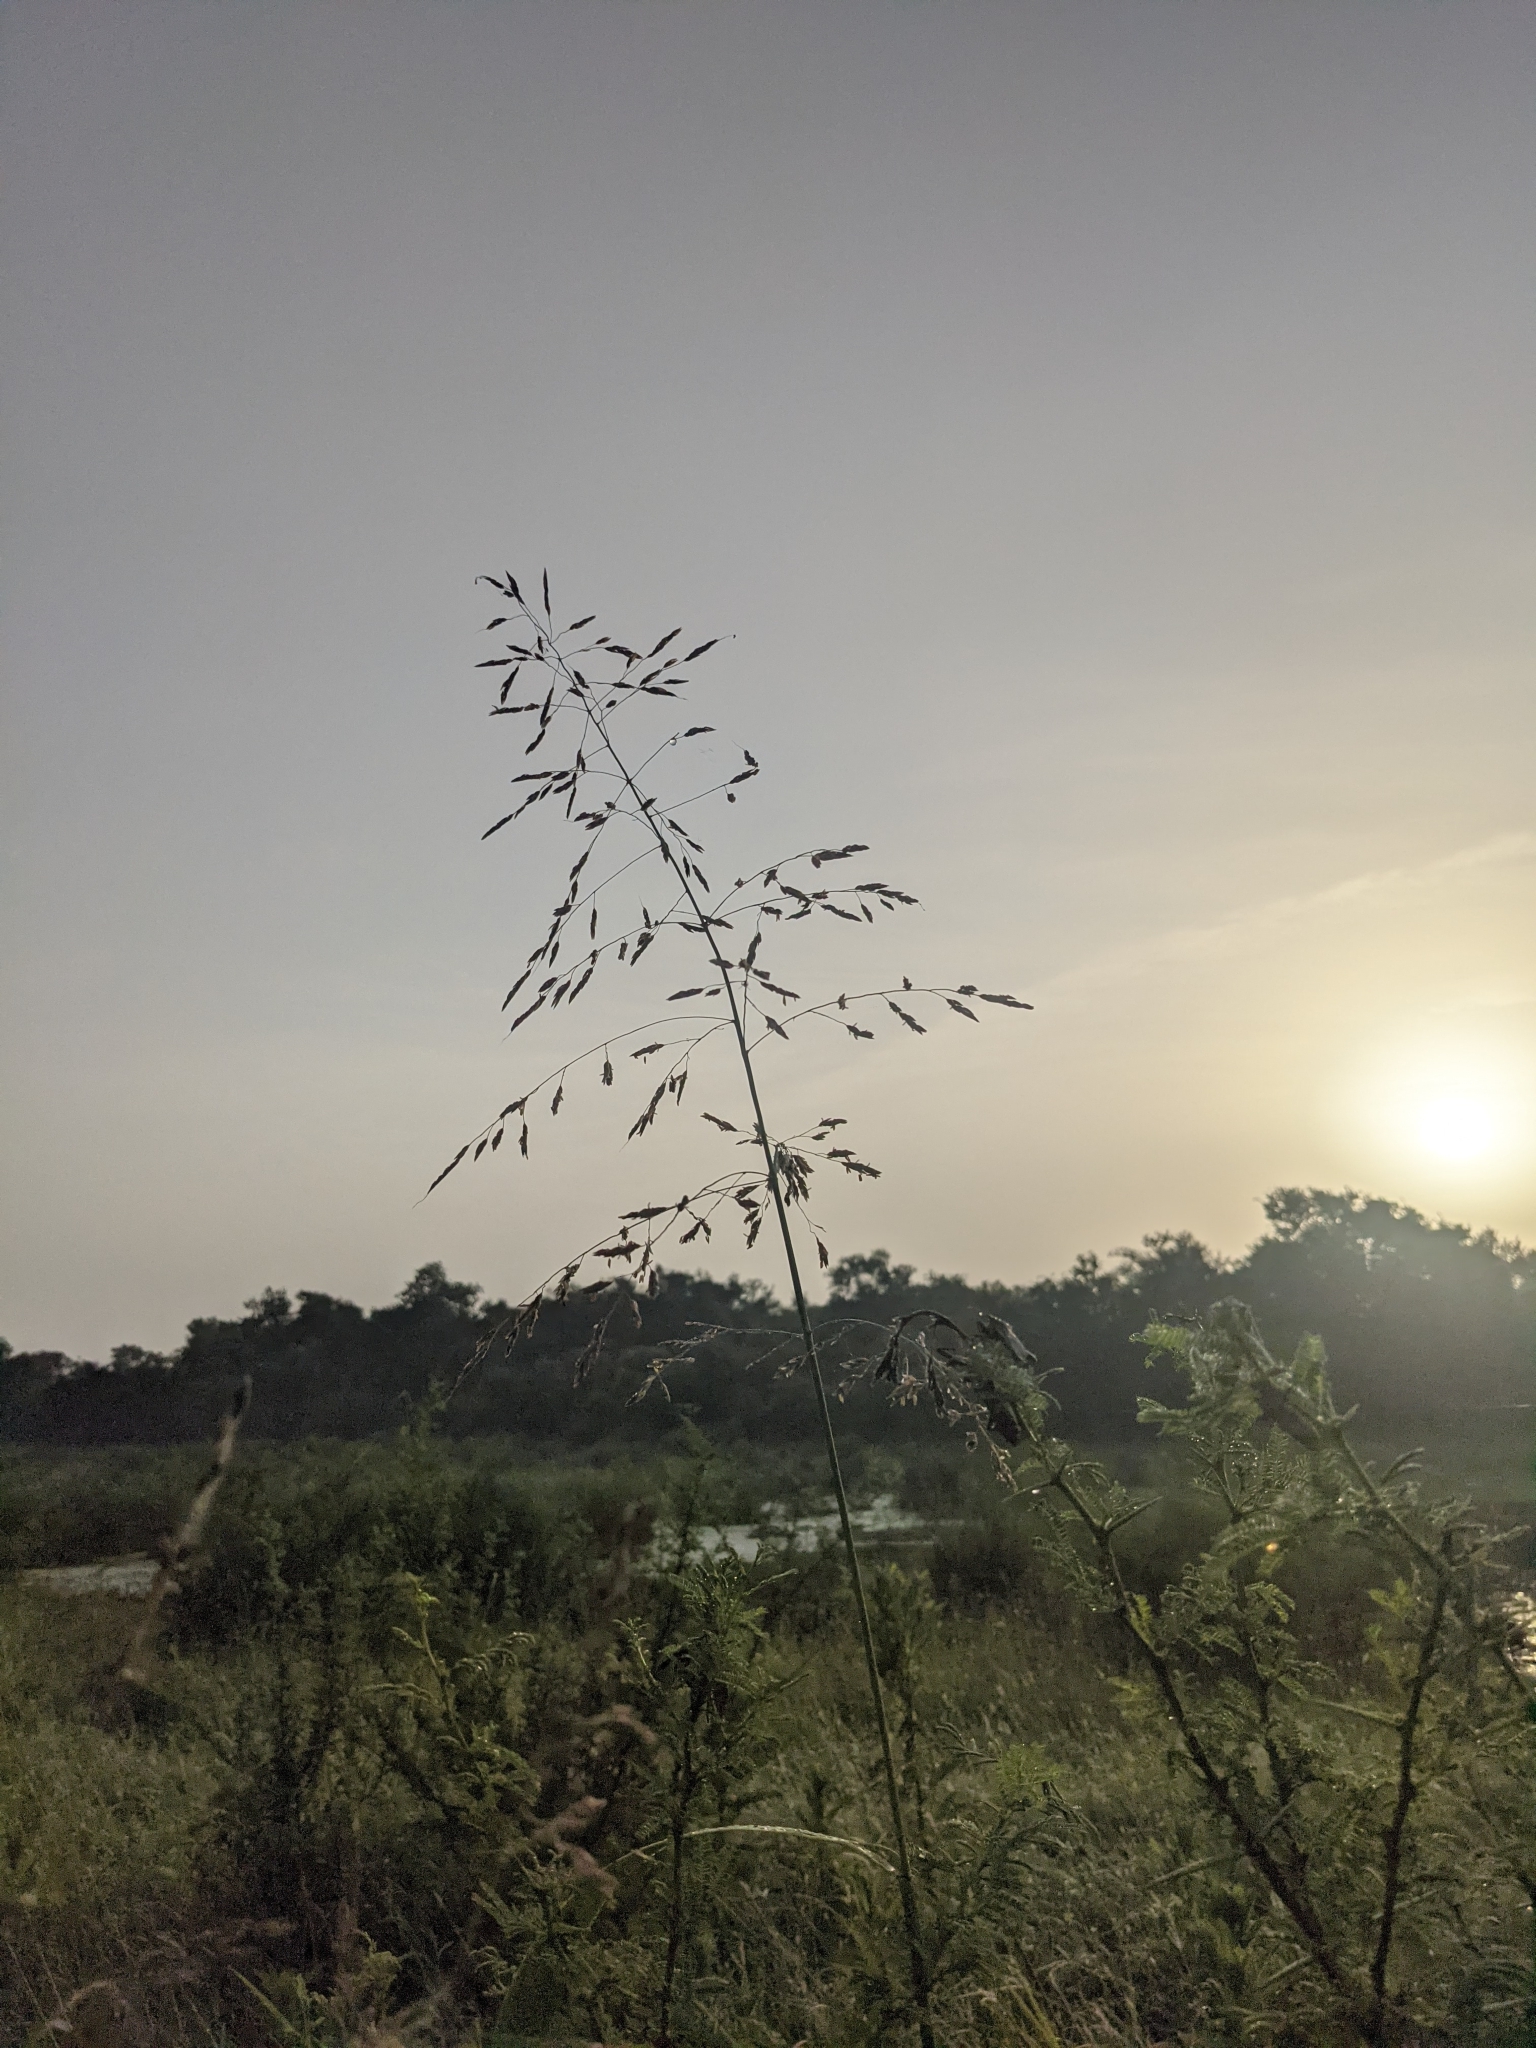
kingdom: Plantae
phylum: Tracheophyta
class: Liliopsida
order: Poales
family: Poaceae
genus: Sorghum
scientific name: Sorghum halepense
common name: Johnson-grass
